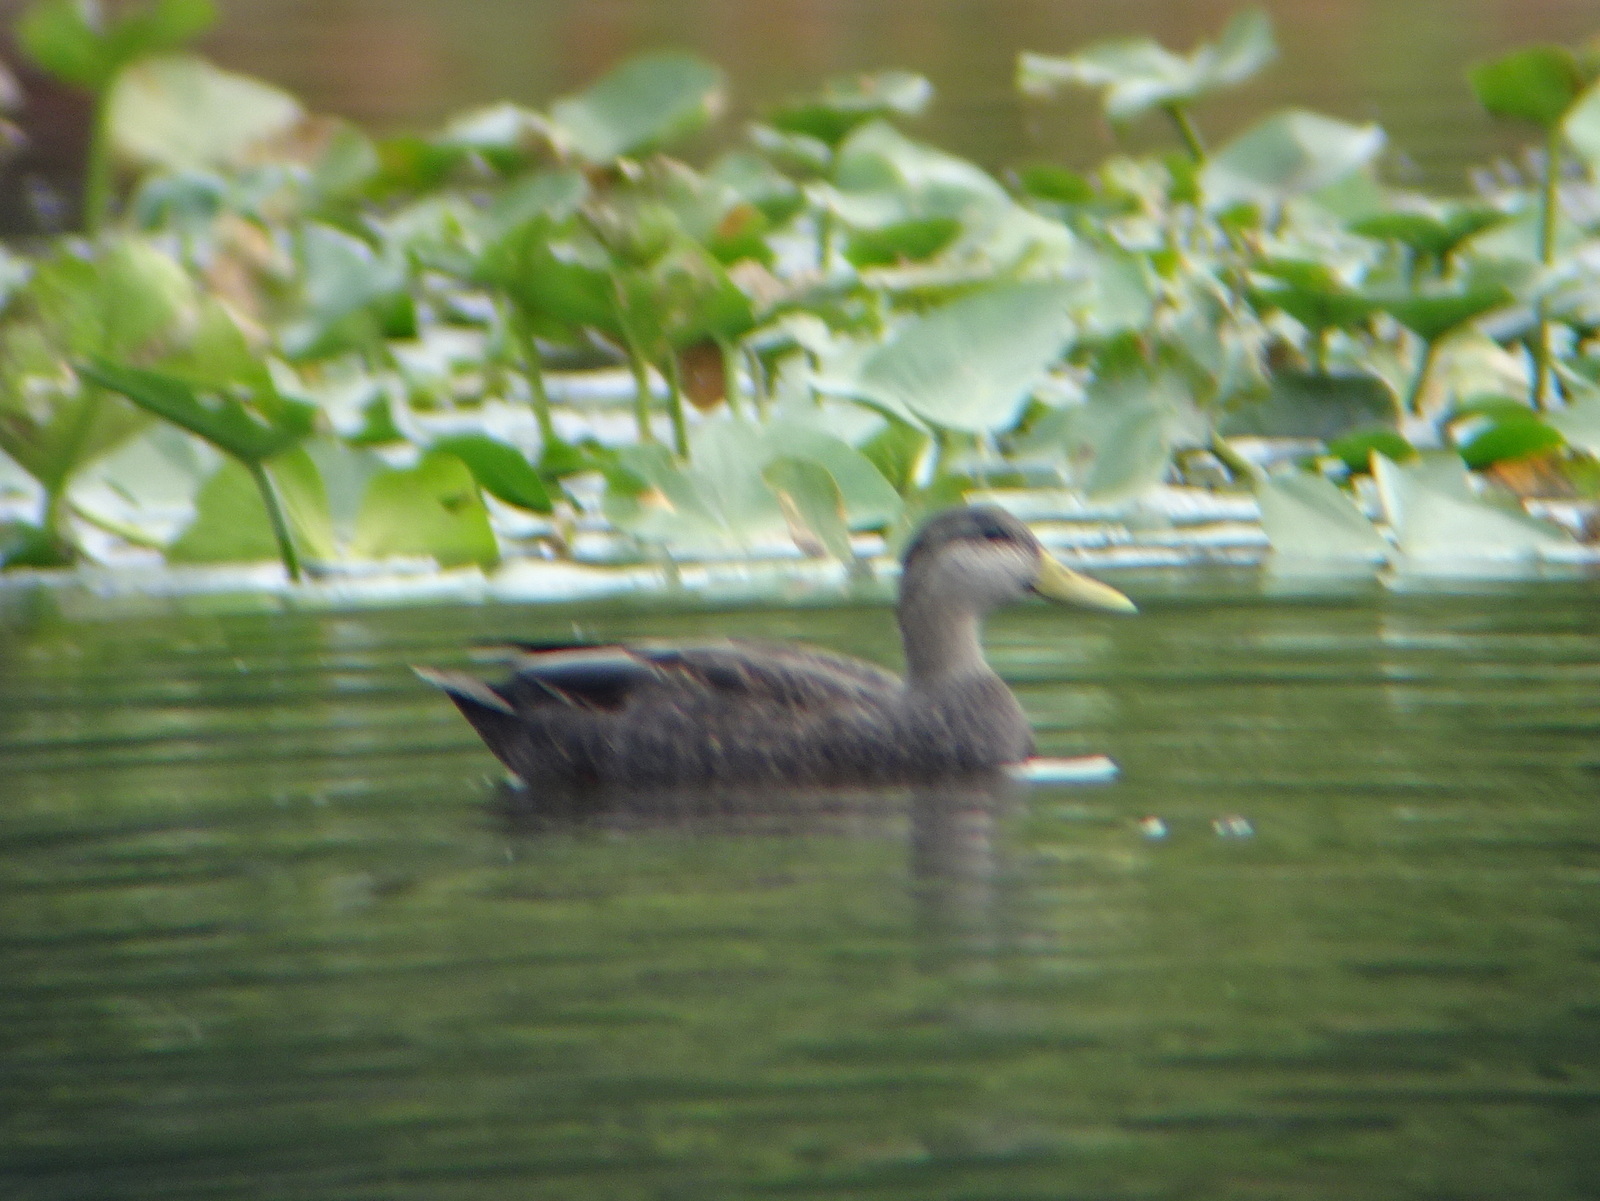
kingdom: Animalia
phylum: Chordata
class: Aves
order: Anseriformes
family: Anatidae
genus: Anas
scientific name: Anas rubripes
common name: American black duck
